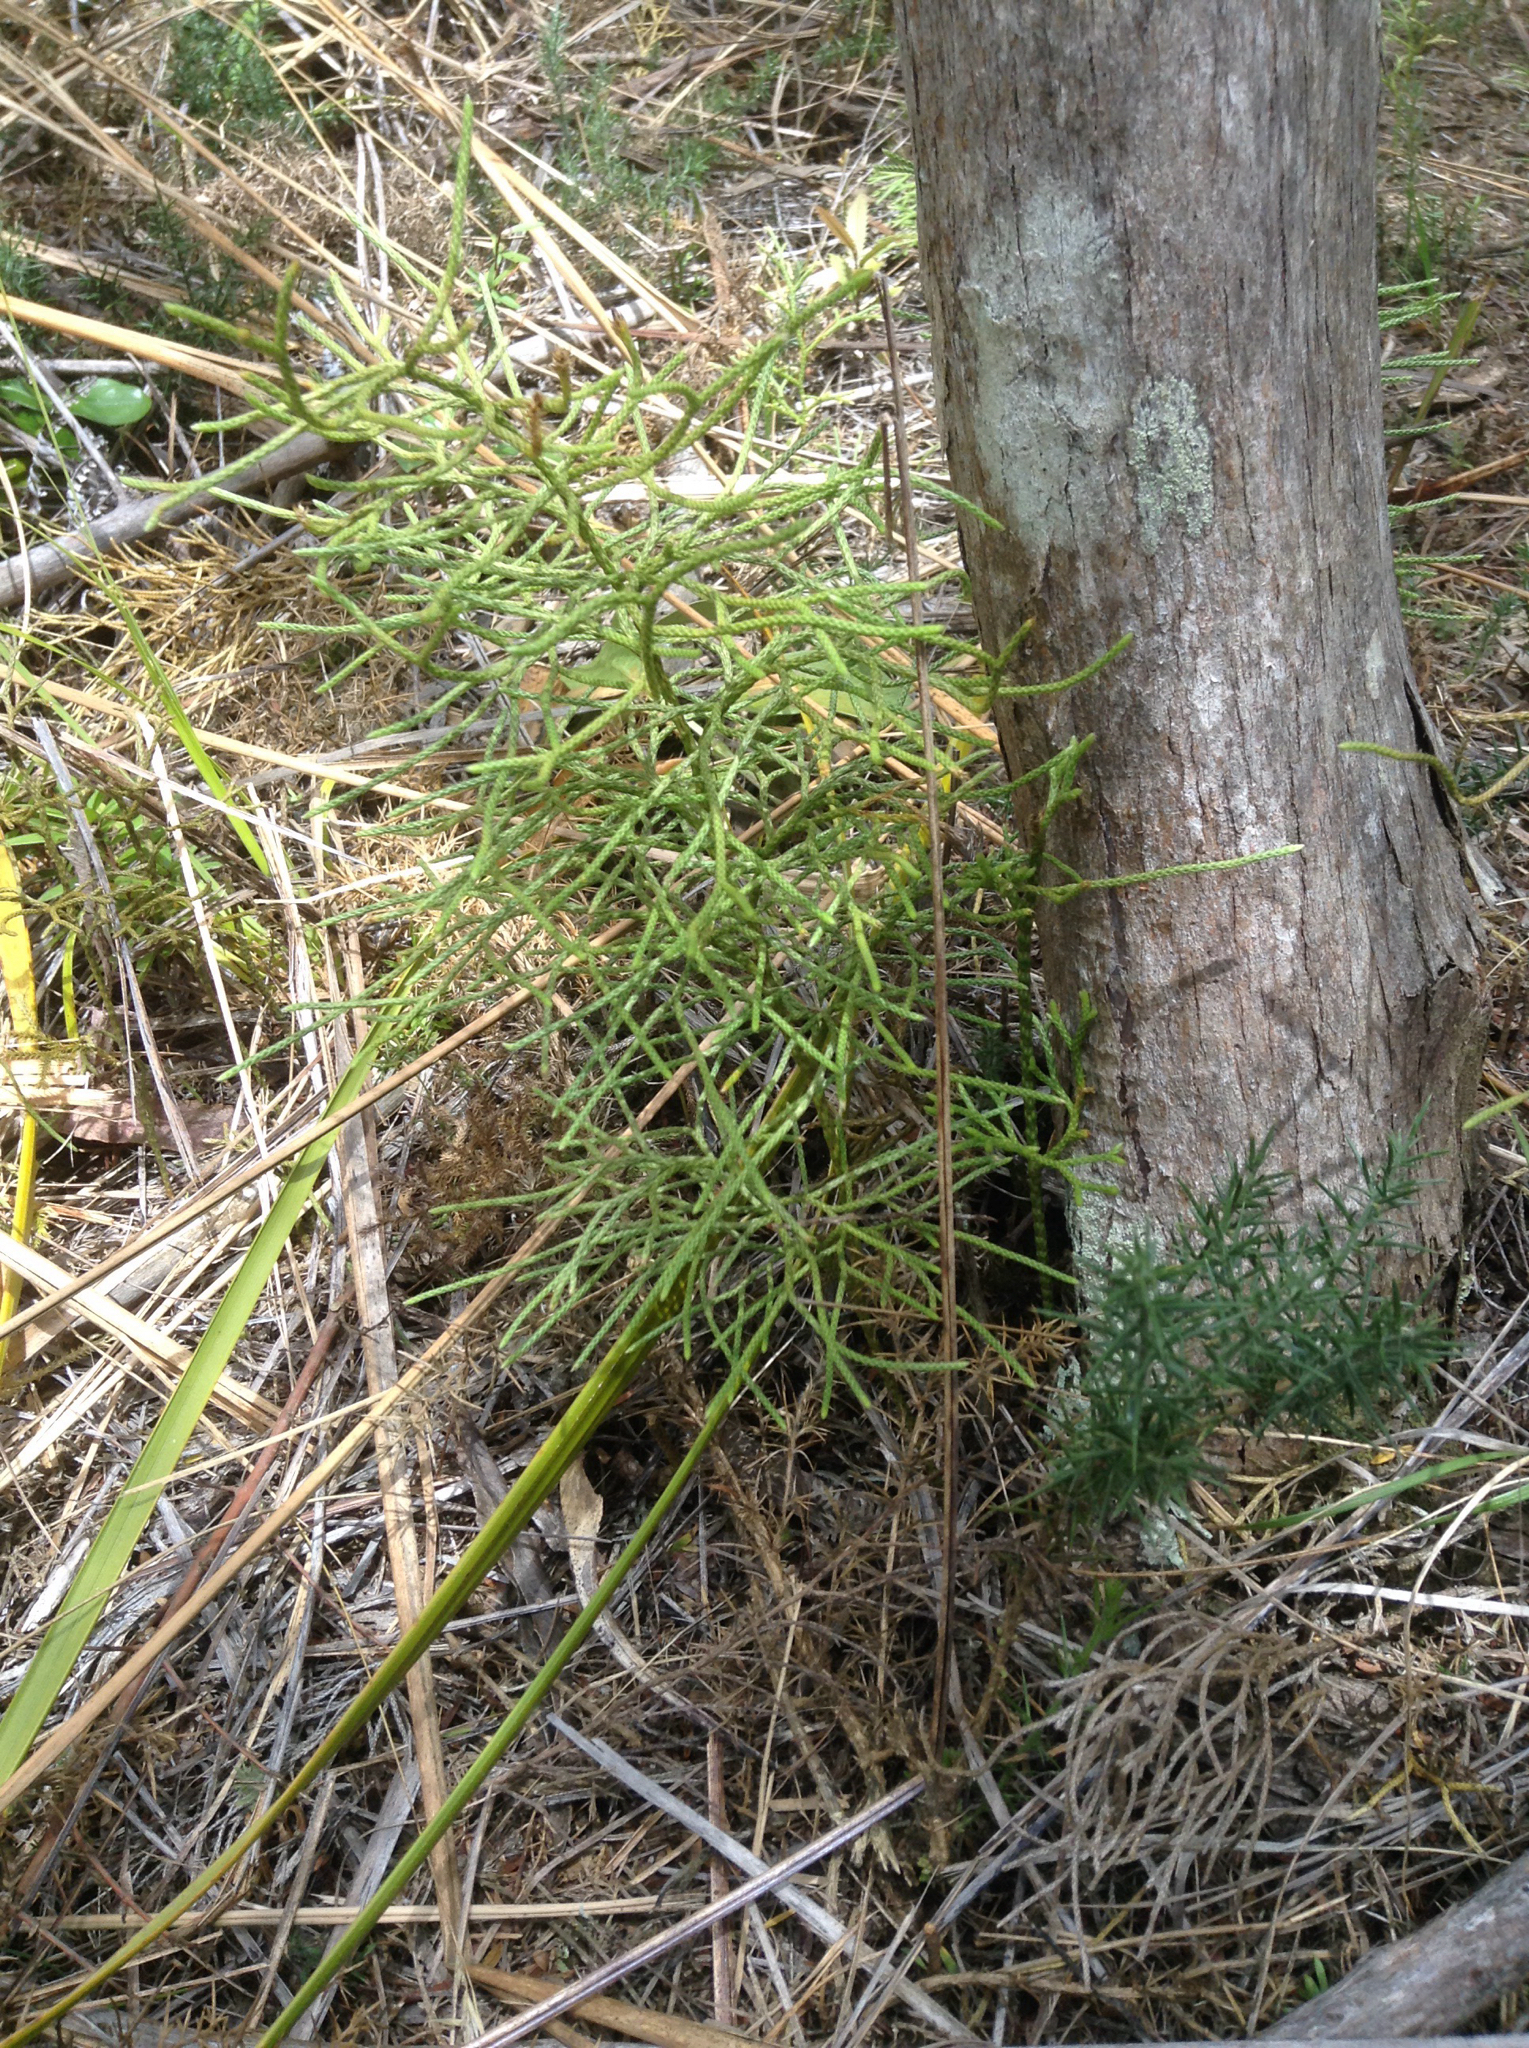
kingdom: Plantae
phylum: Tracheophyta
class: Lycopodiopsida
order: Lycopodiales
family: Lycopodiaceae
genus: Pseudolycopodium
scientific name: Pseudolycopodium densum
